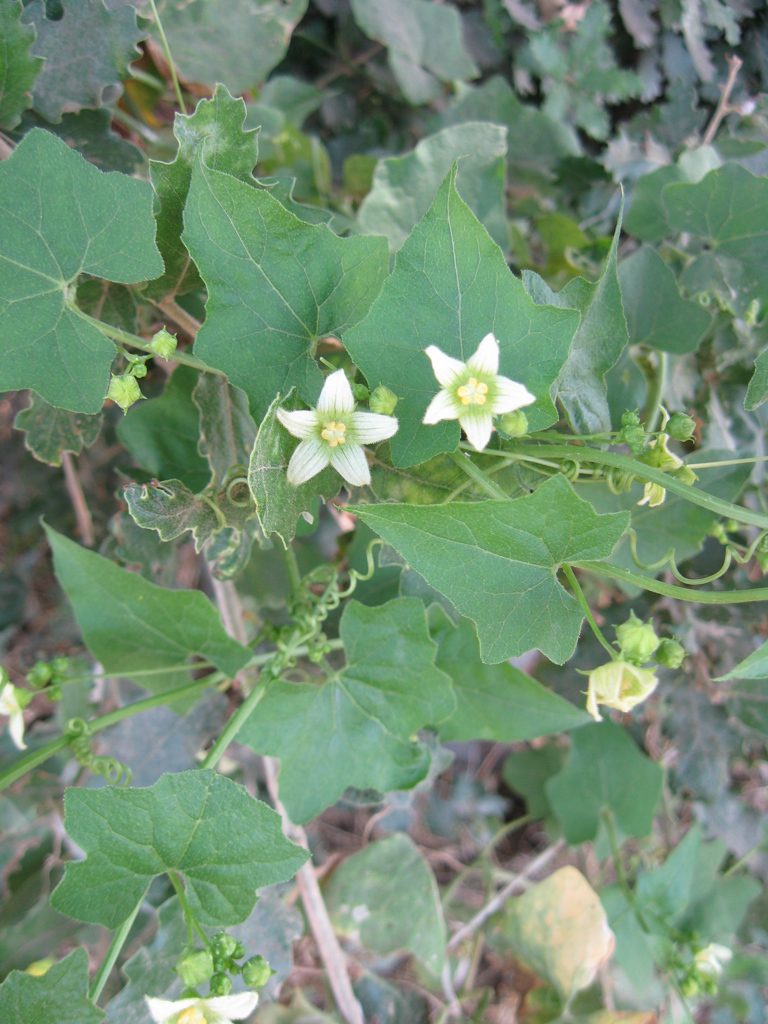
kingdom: Plantae
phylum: Tracheophyta
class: Magnoliopsida
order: Cucurbitales
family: Cucurbitaceae
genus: Bryonia
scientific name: Bryonia dioica
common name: White bryony
